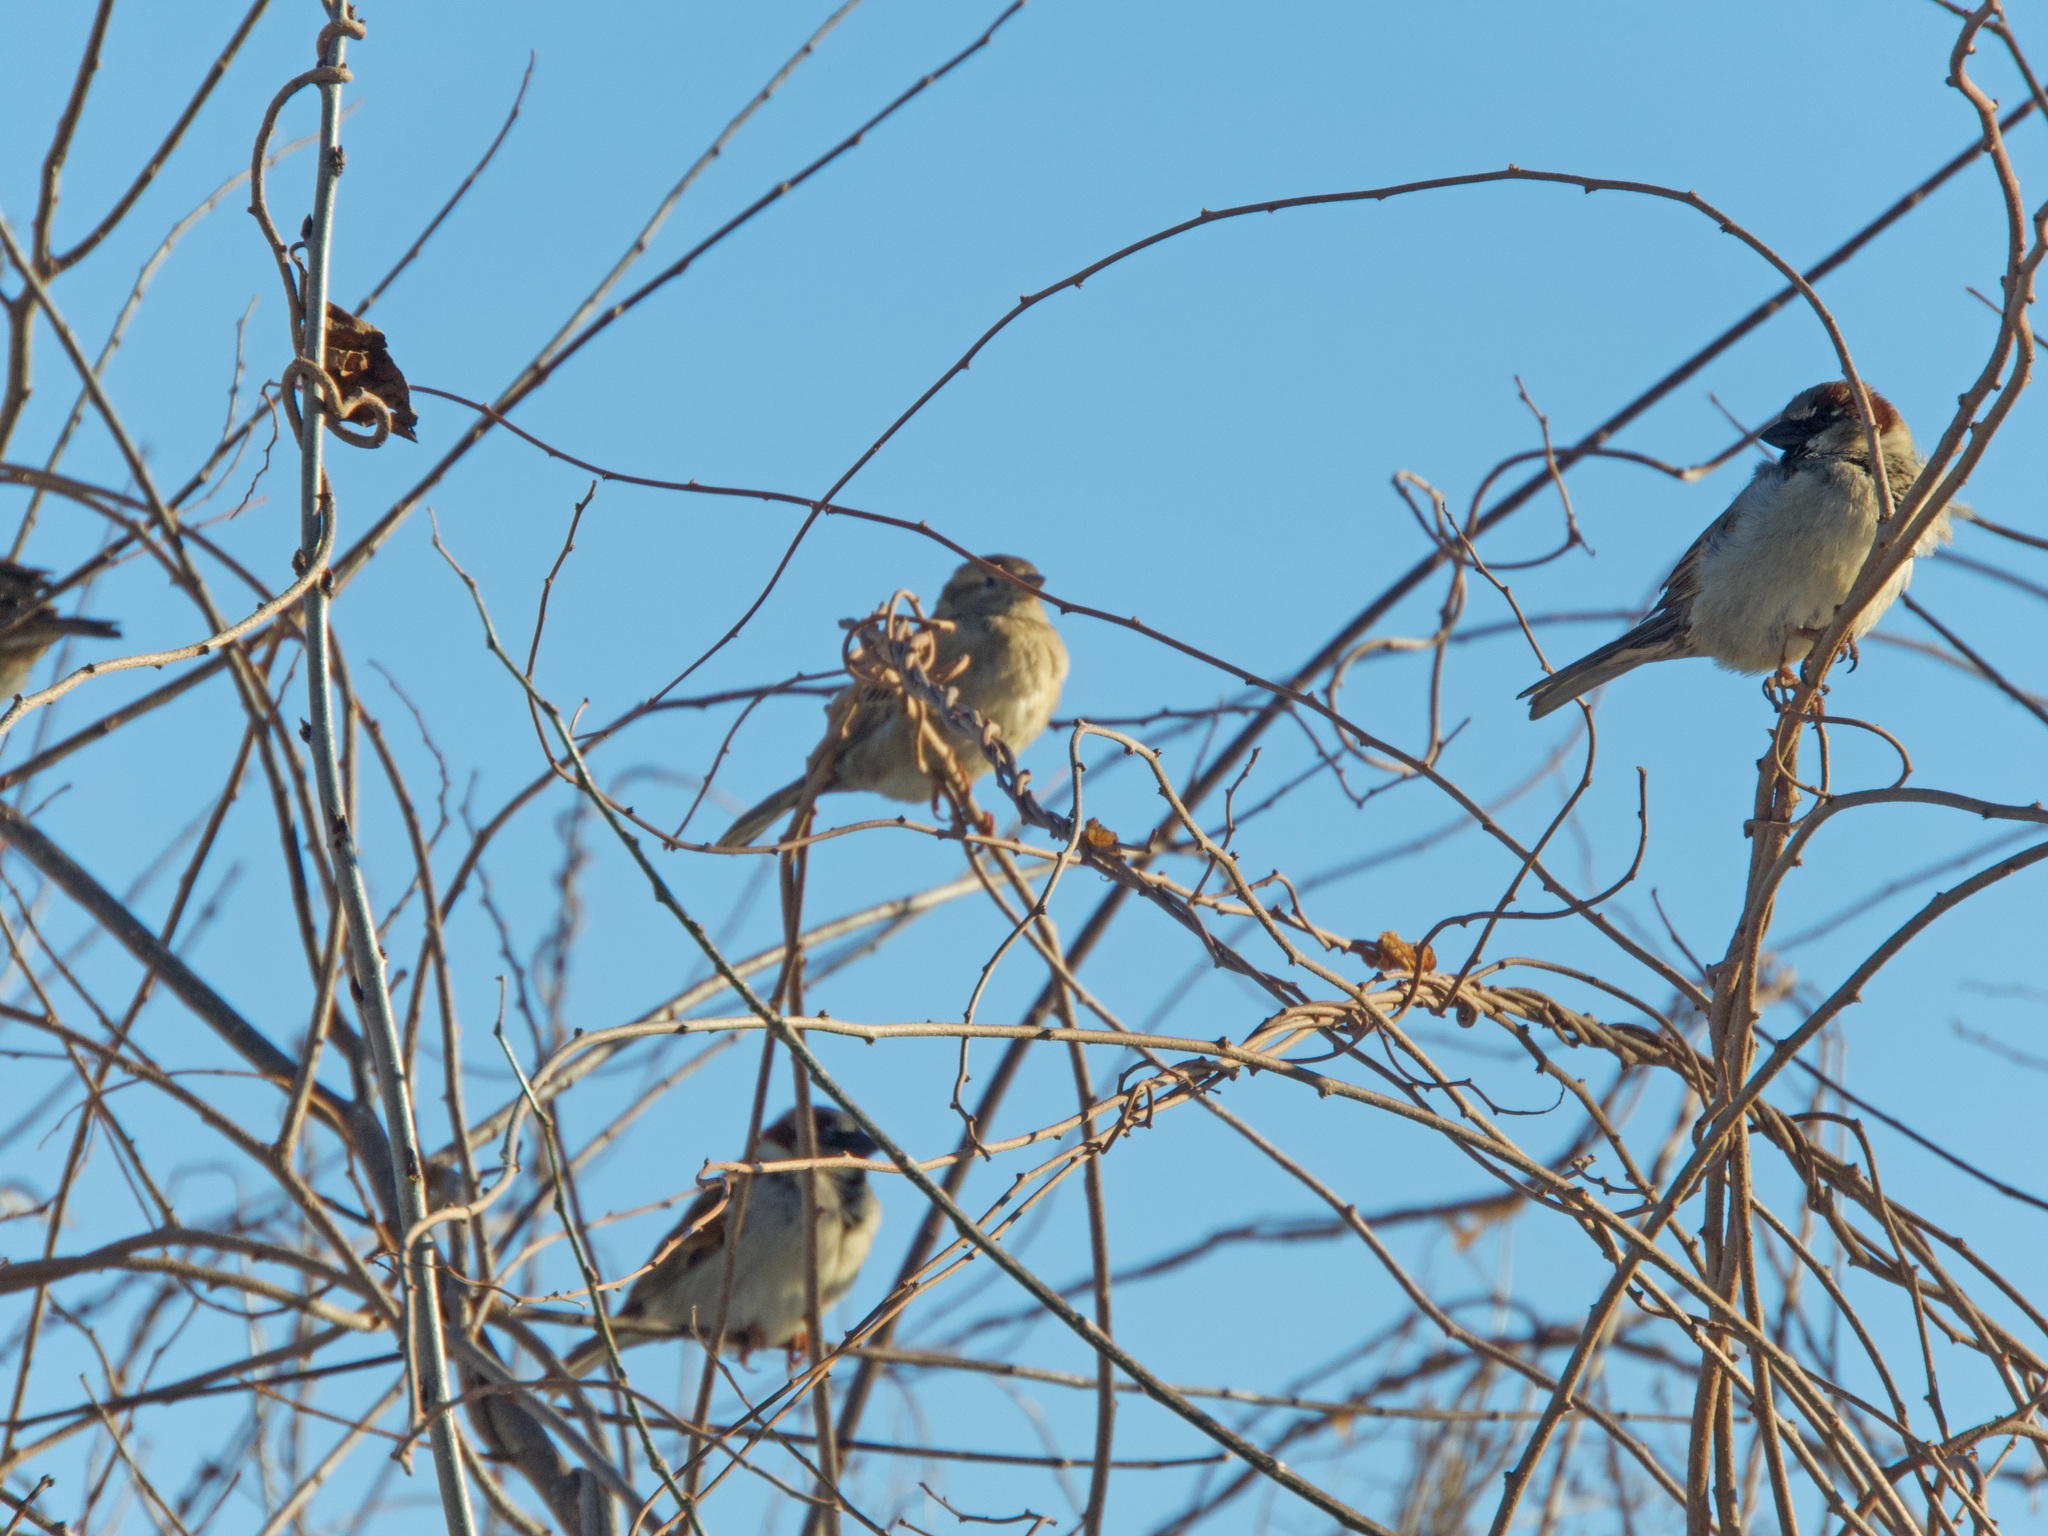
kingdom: Animalia
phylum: Chordata
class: Aves
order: Passeriformes
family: Passeridae
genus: Passer
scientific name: Passer domesticus
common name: House sparrow
